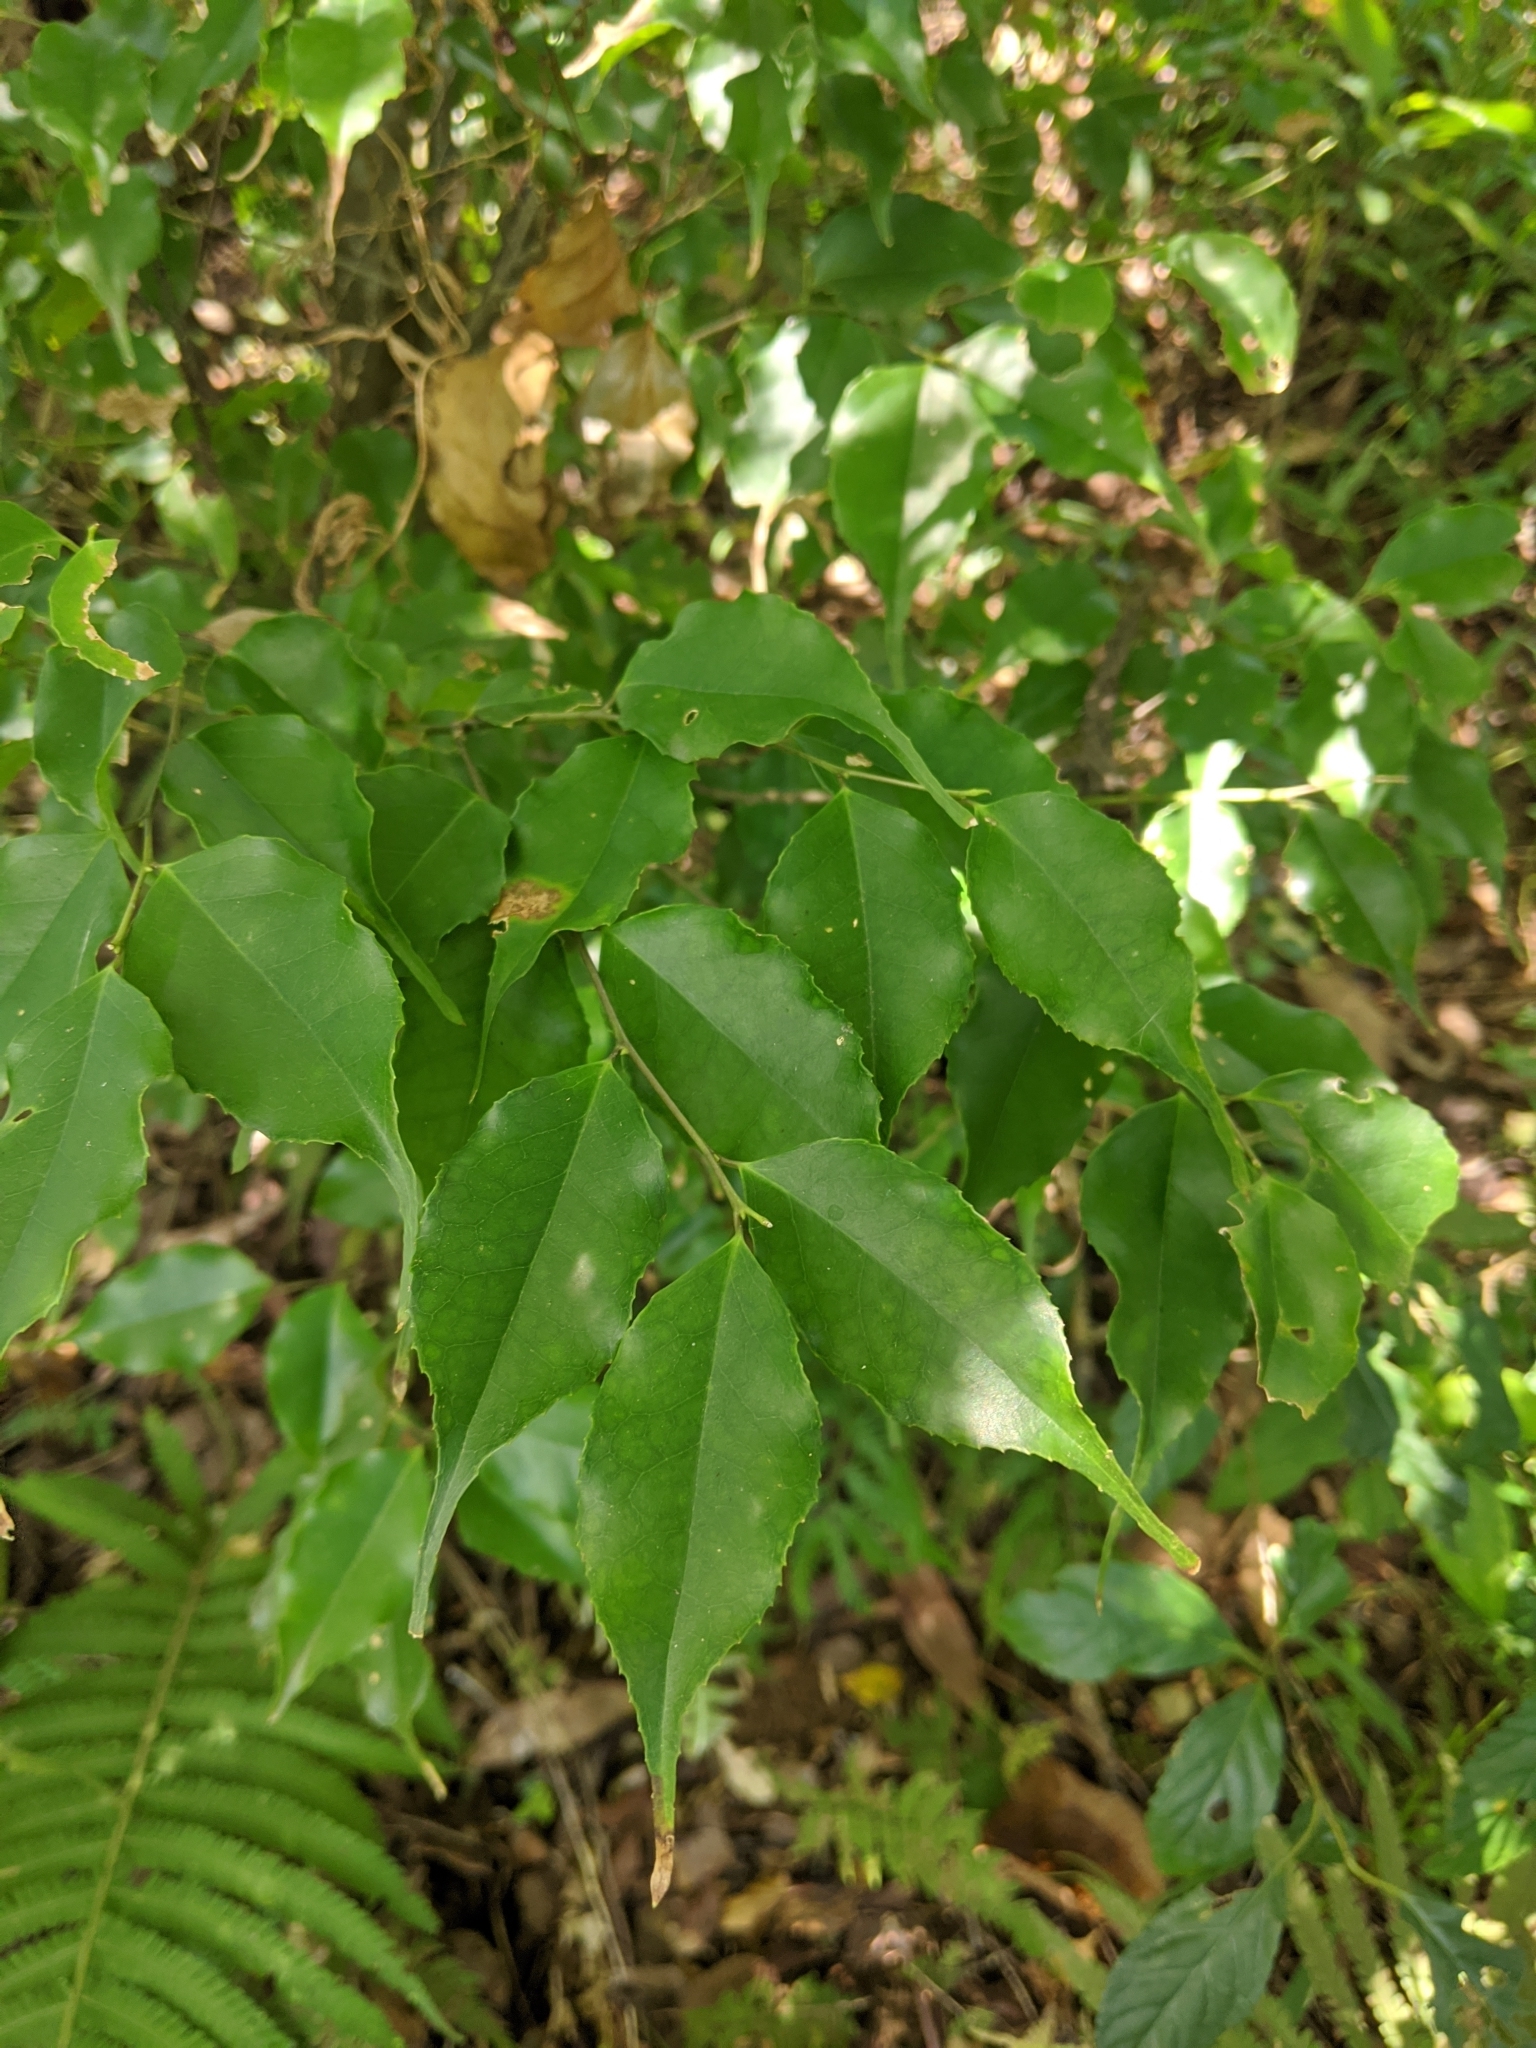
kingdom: Plantae
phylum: Tracheophyta
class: Magnoliopsida
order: Ericales
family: Symplocaceae
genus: Symplocos
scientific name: Symplocos sumuntia
